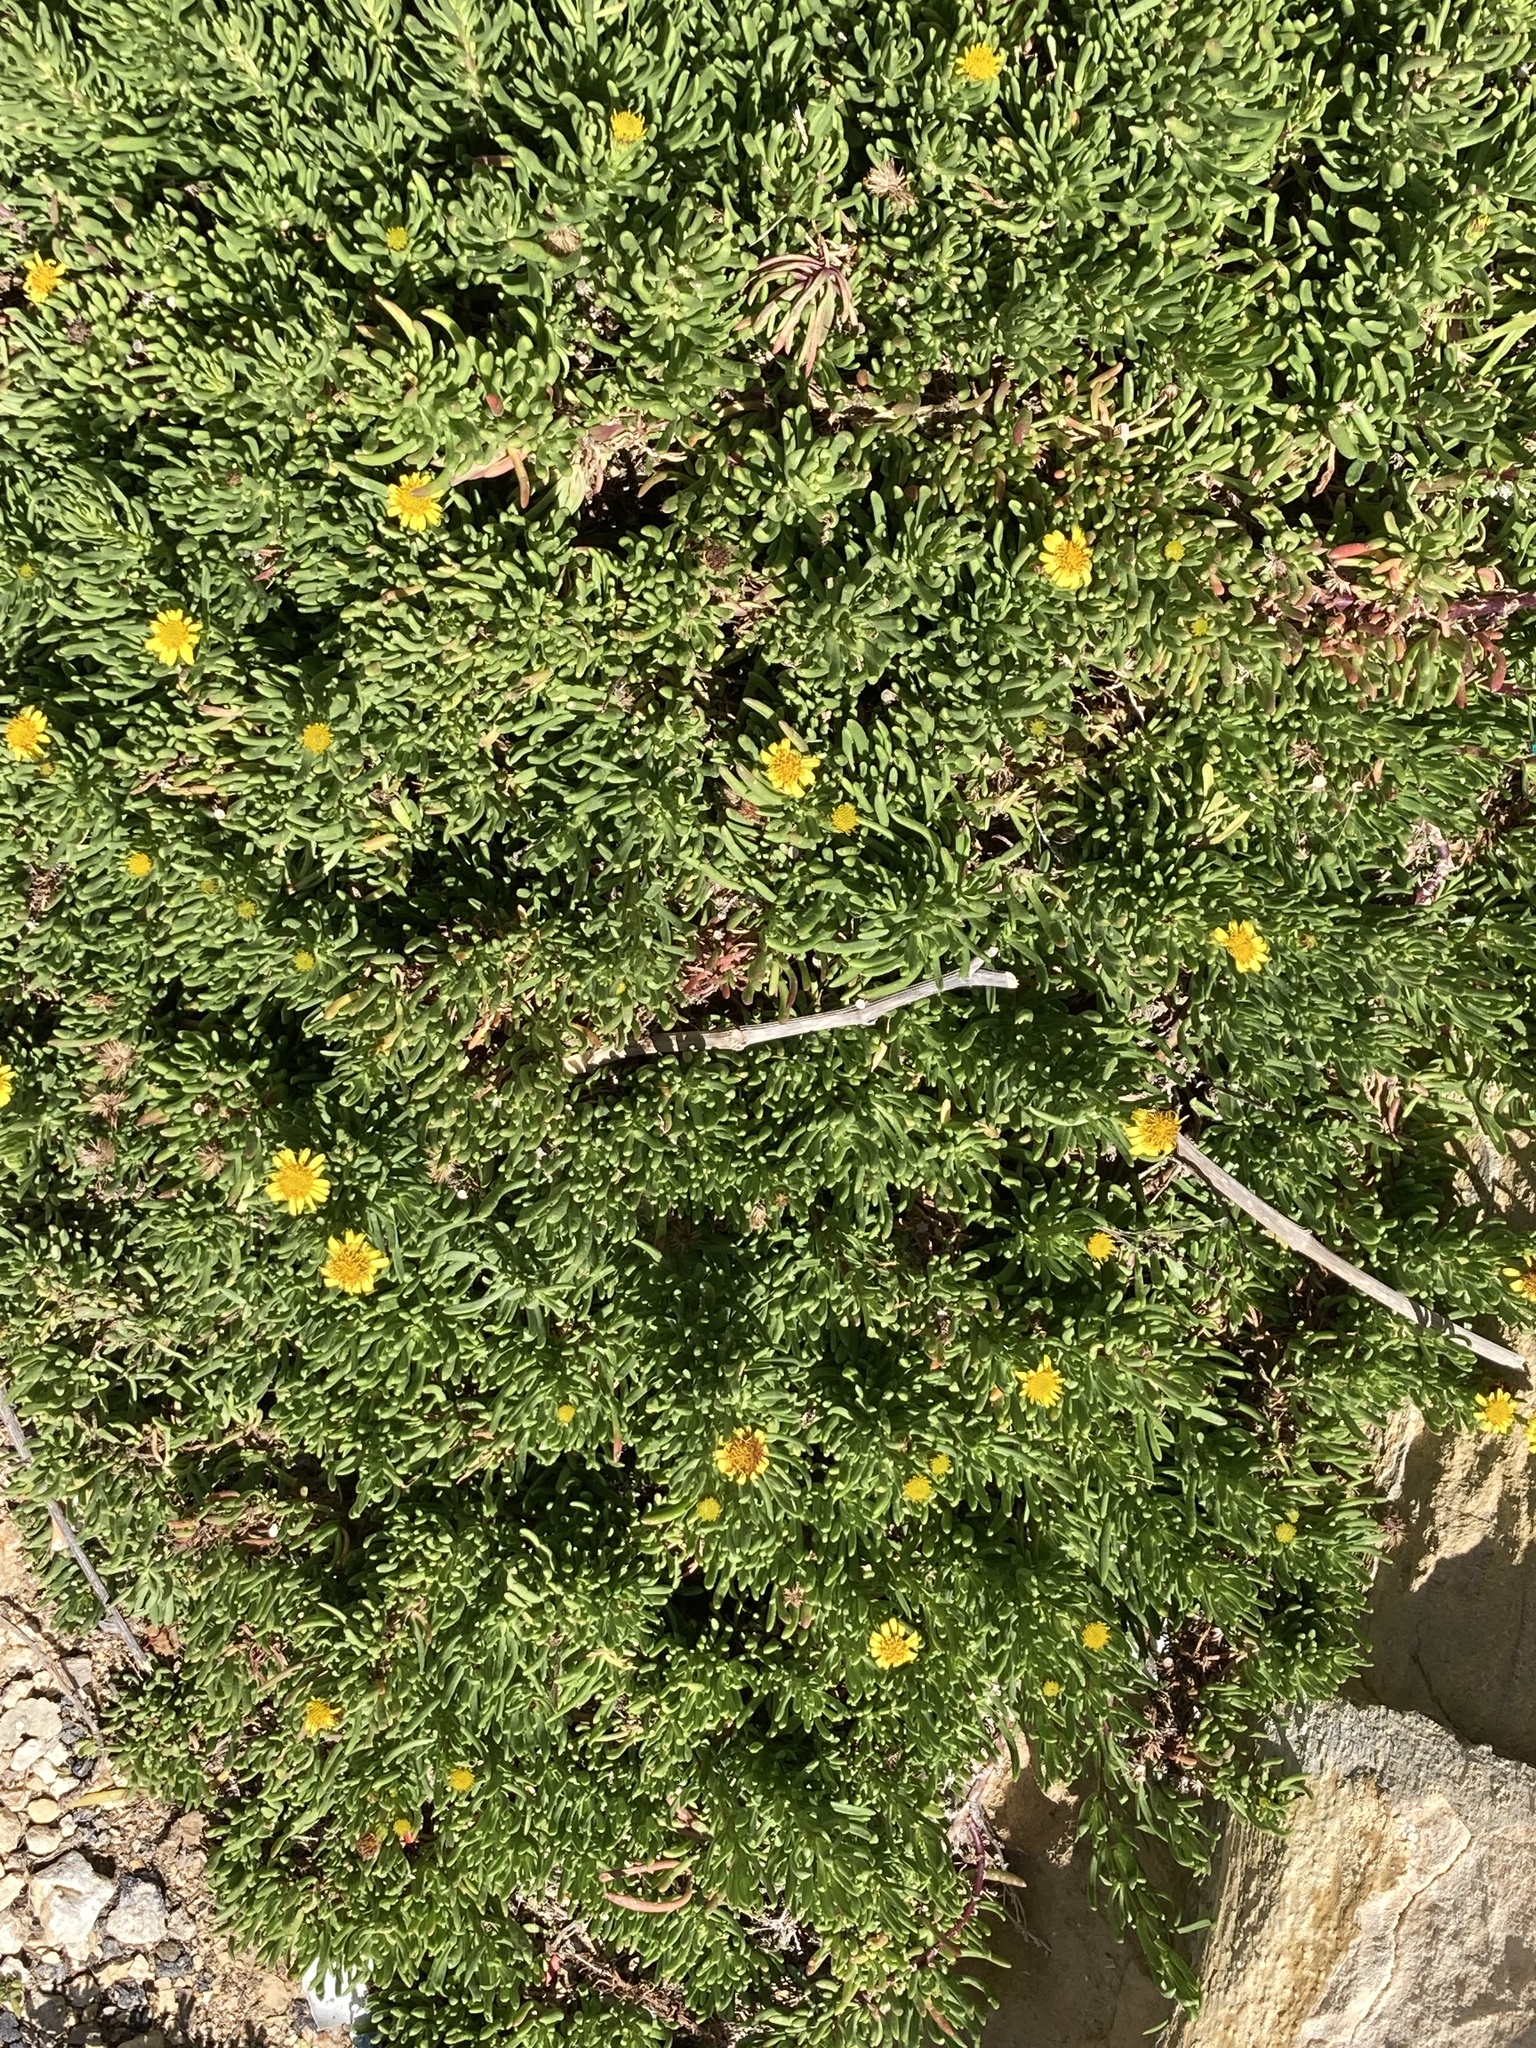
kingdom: Plantae
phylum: Tracheophyta
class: Magnoliopsida
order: Asterales
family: Asteraceae
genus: Limbarda
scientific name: Limbarda crithmoides
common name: Golden samphire
